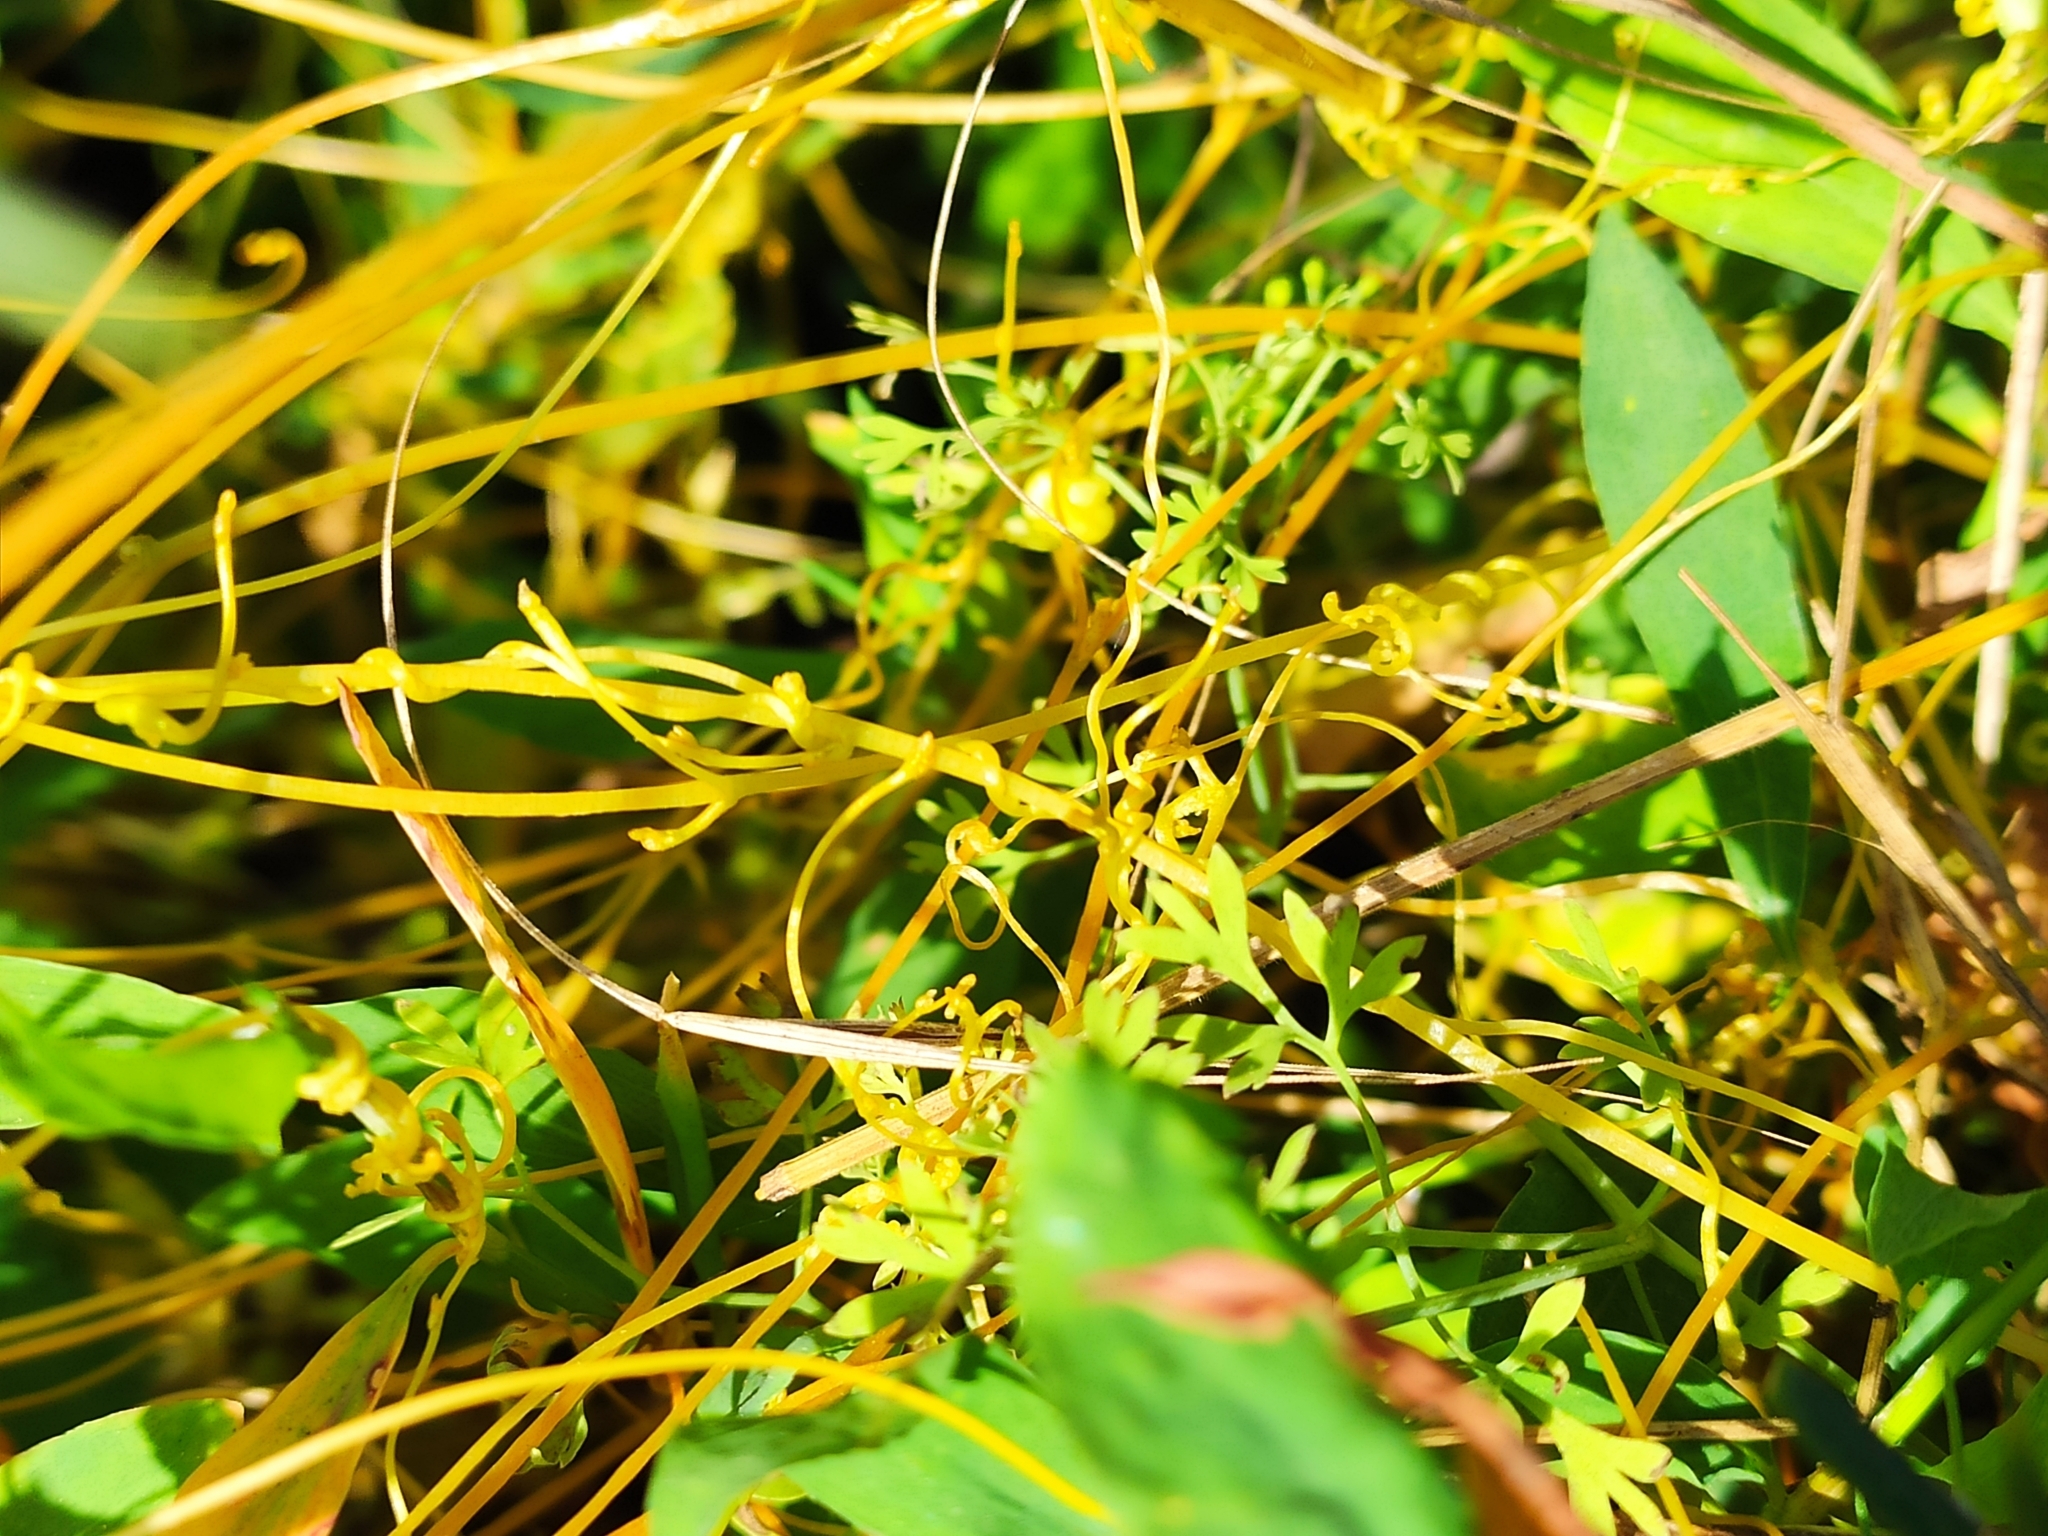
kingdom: Plantae
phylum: Tracheophyta
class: Magnoliopsida
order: Solanales
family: Convolvulaceae
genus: Cuscuta
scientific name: Cuscuta campestris
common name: Yellow dodder
